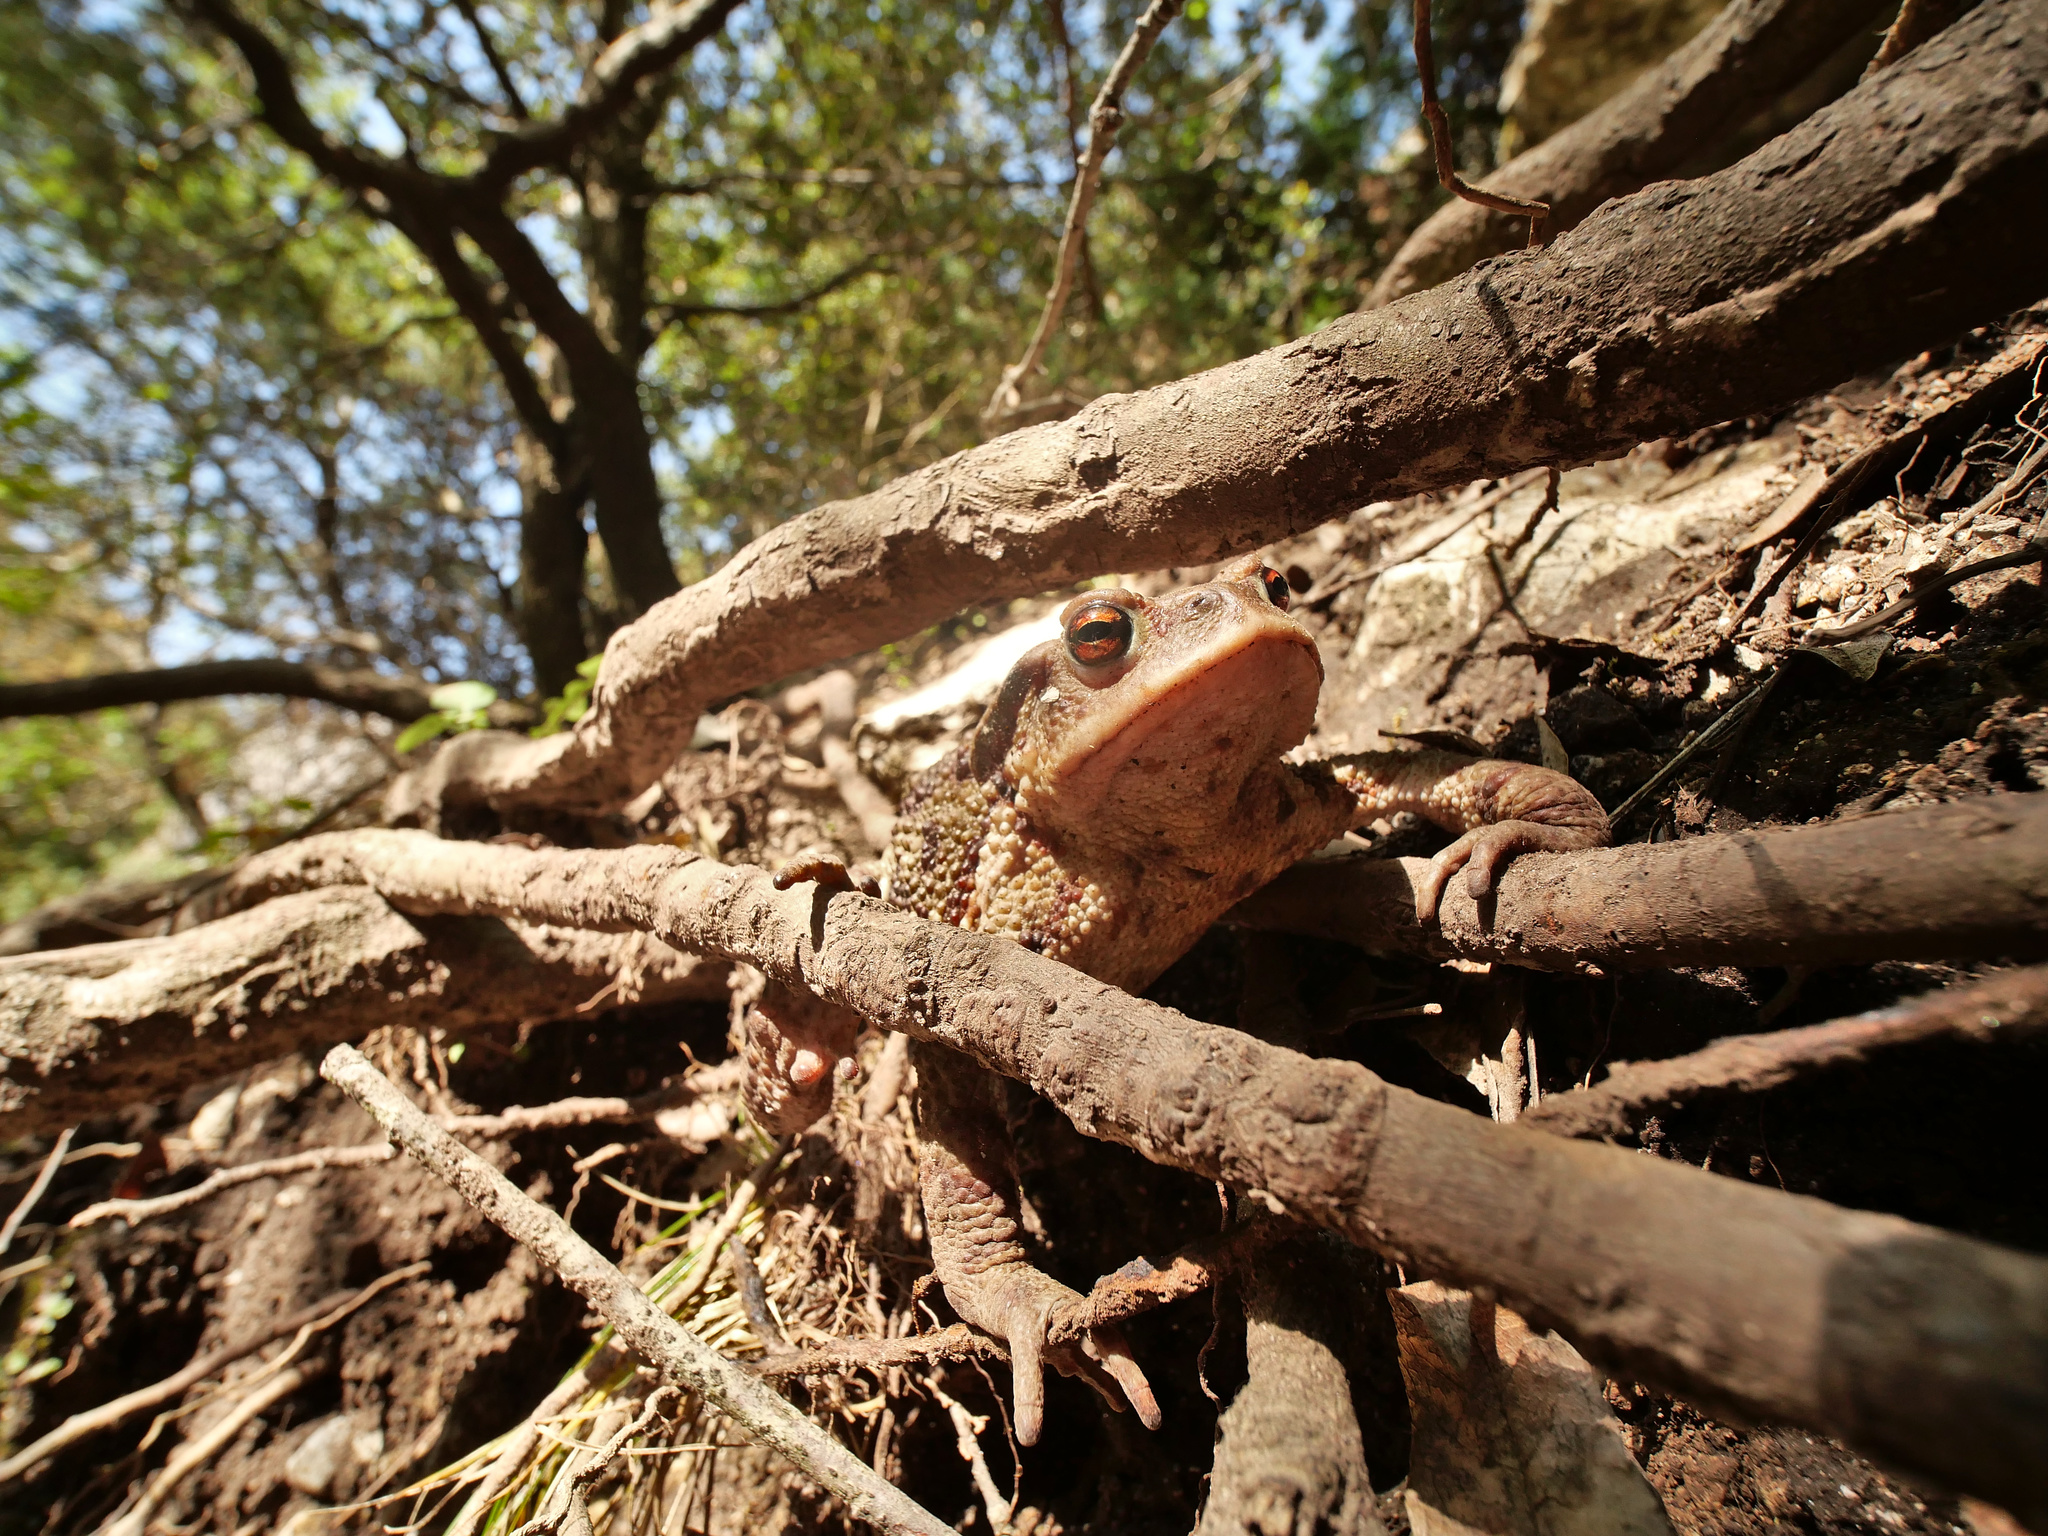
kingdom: Animalia
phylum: Chordata
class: Amphibia
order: Anura
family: Bufonidae
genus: Bufo
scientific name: Bufo bufo
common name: Common toad
